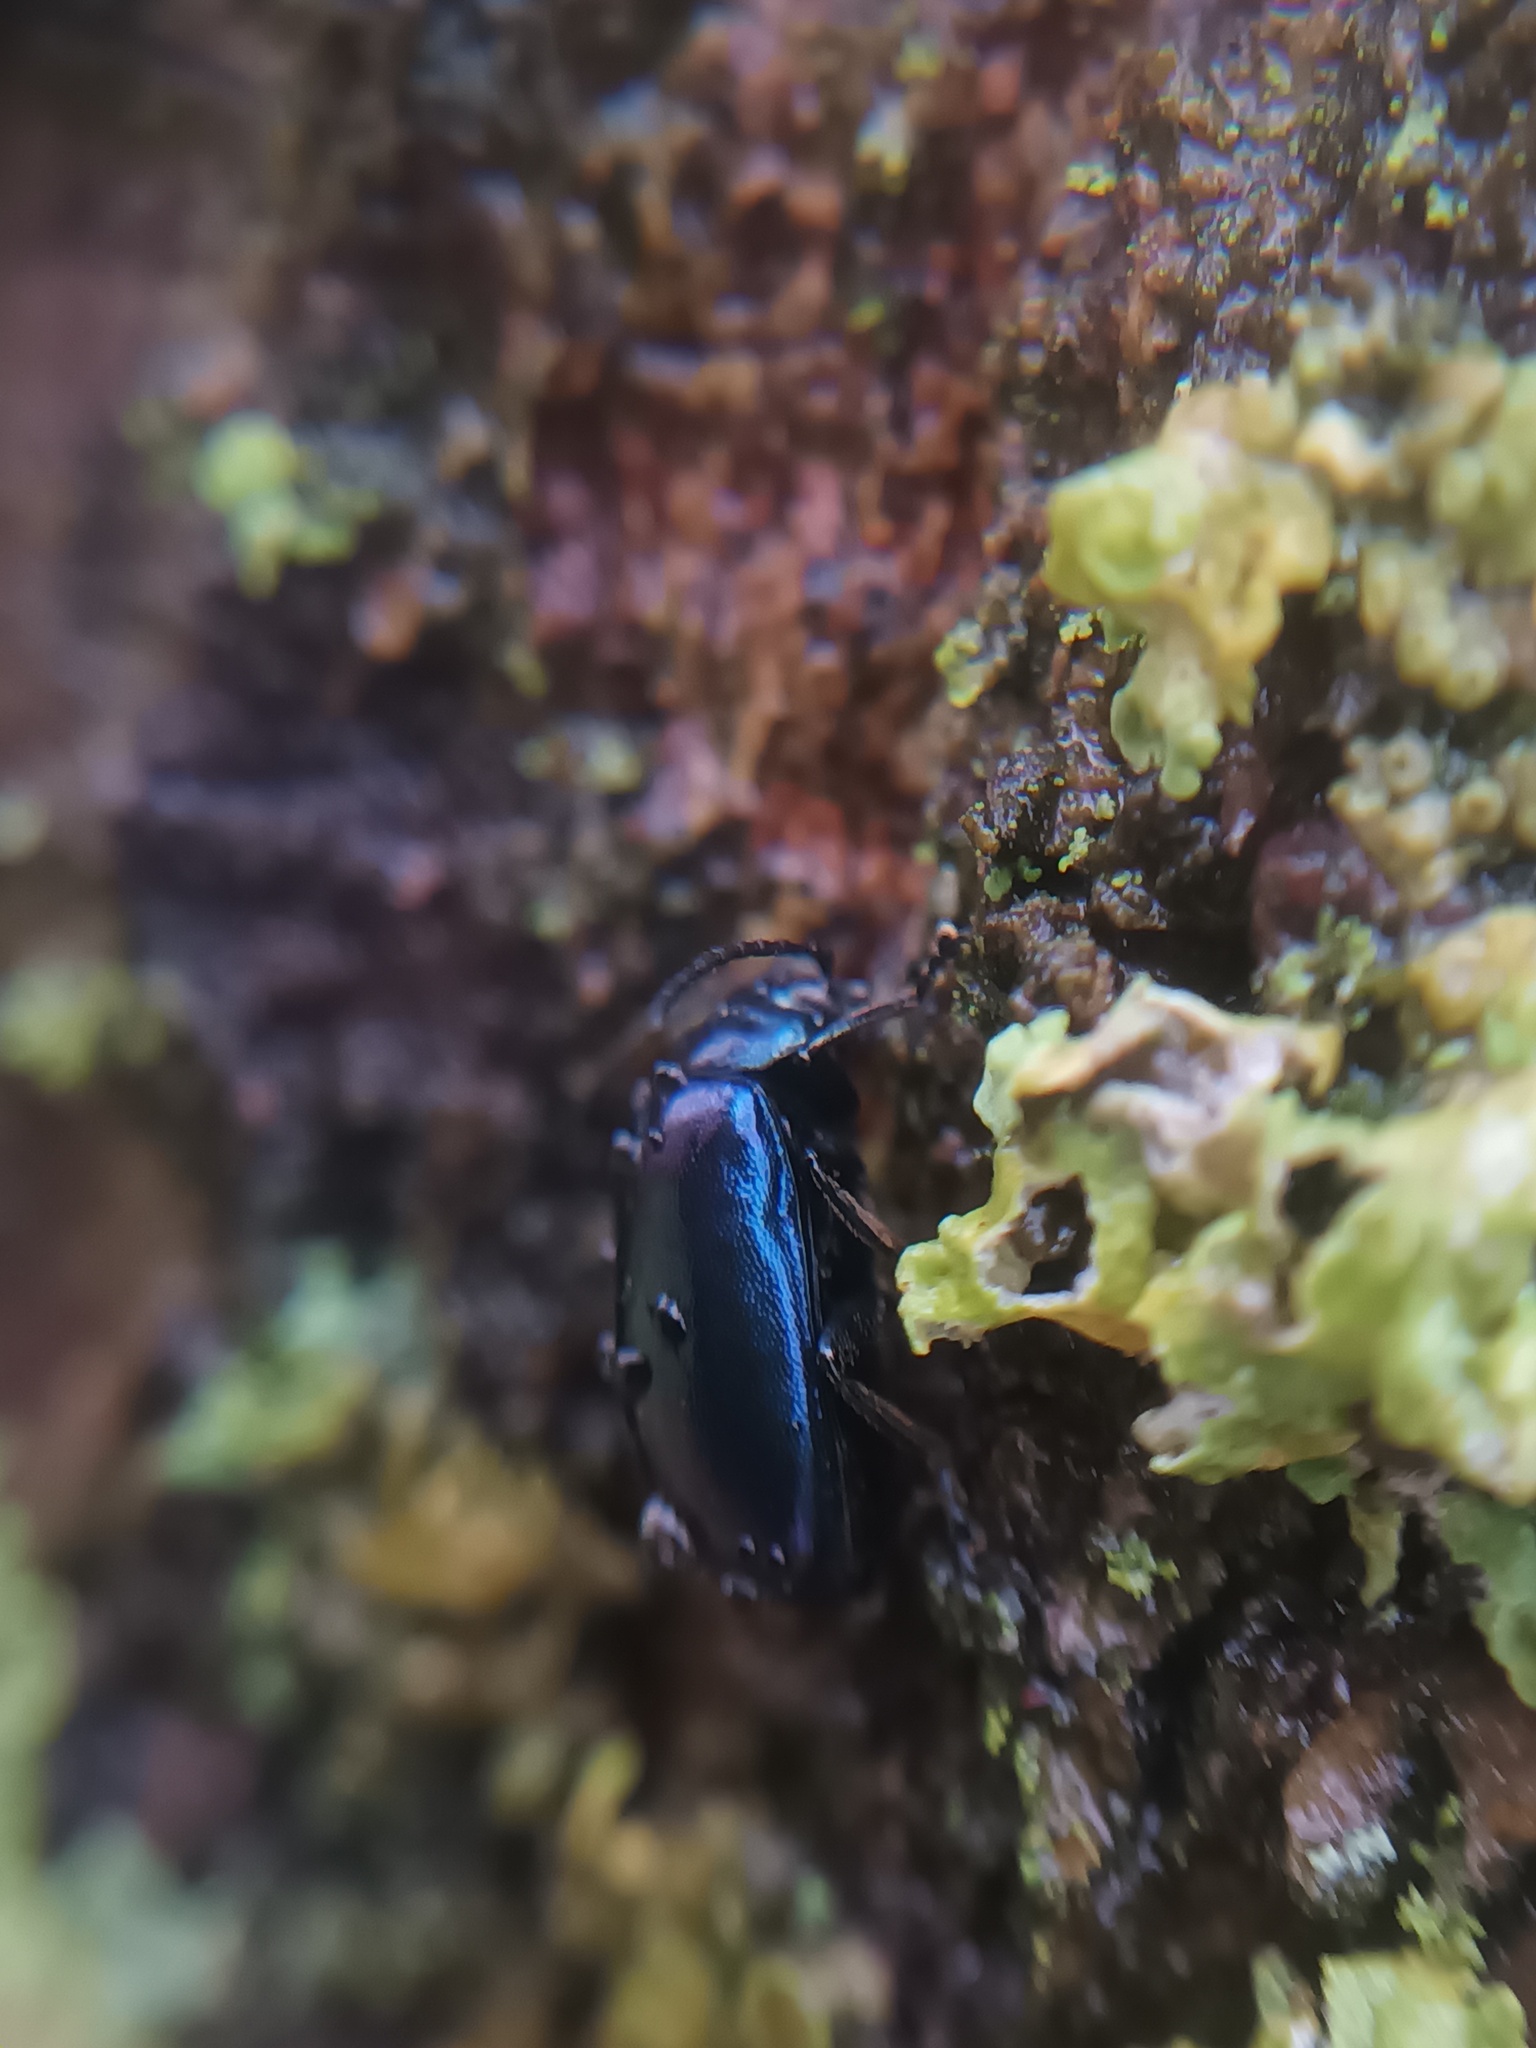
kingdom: Animalia
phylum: Arthropoda
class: Insecta
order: Coleoptera
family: Chrysomelidae
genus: Agelastica
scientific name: Agelastica alni
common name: Alder leaf beetle
